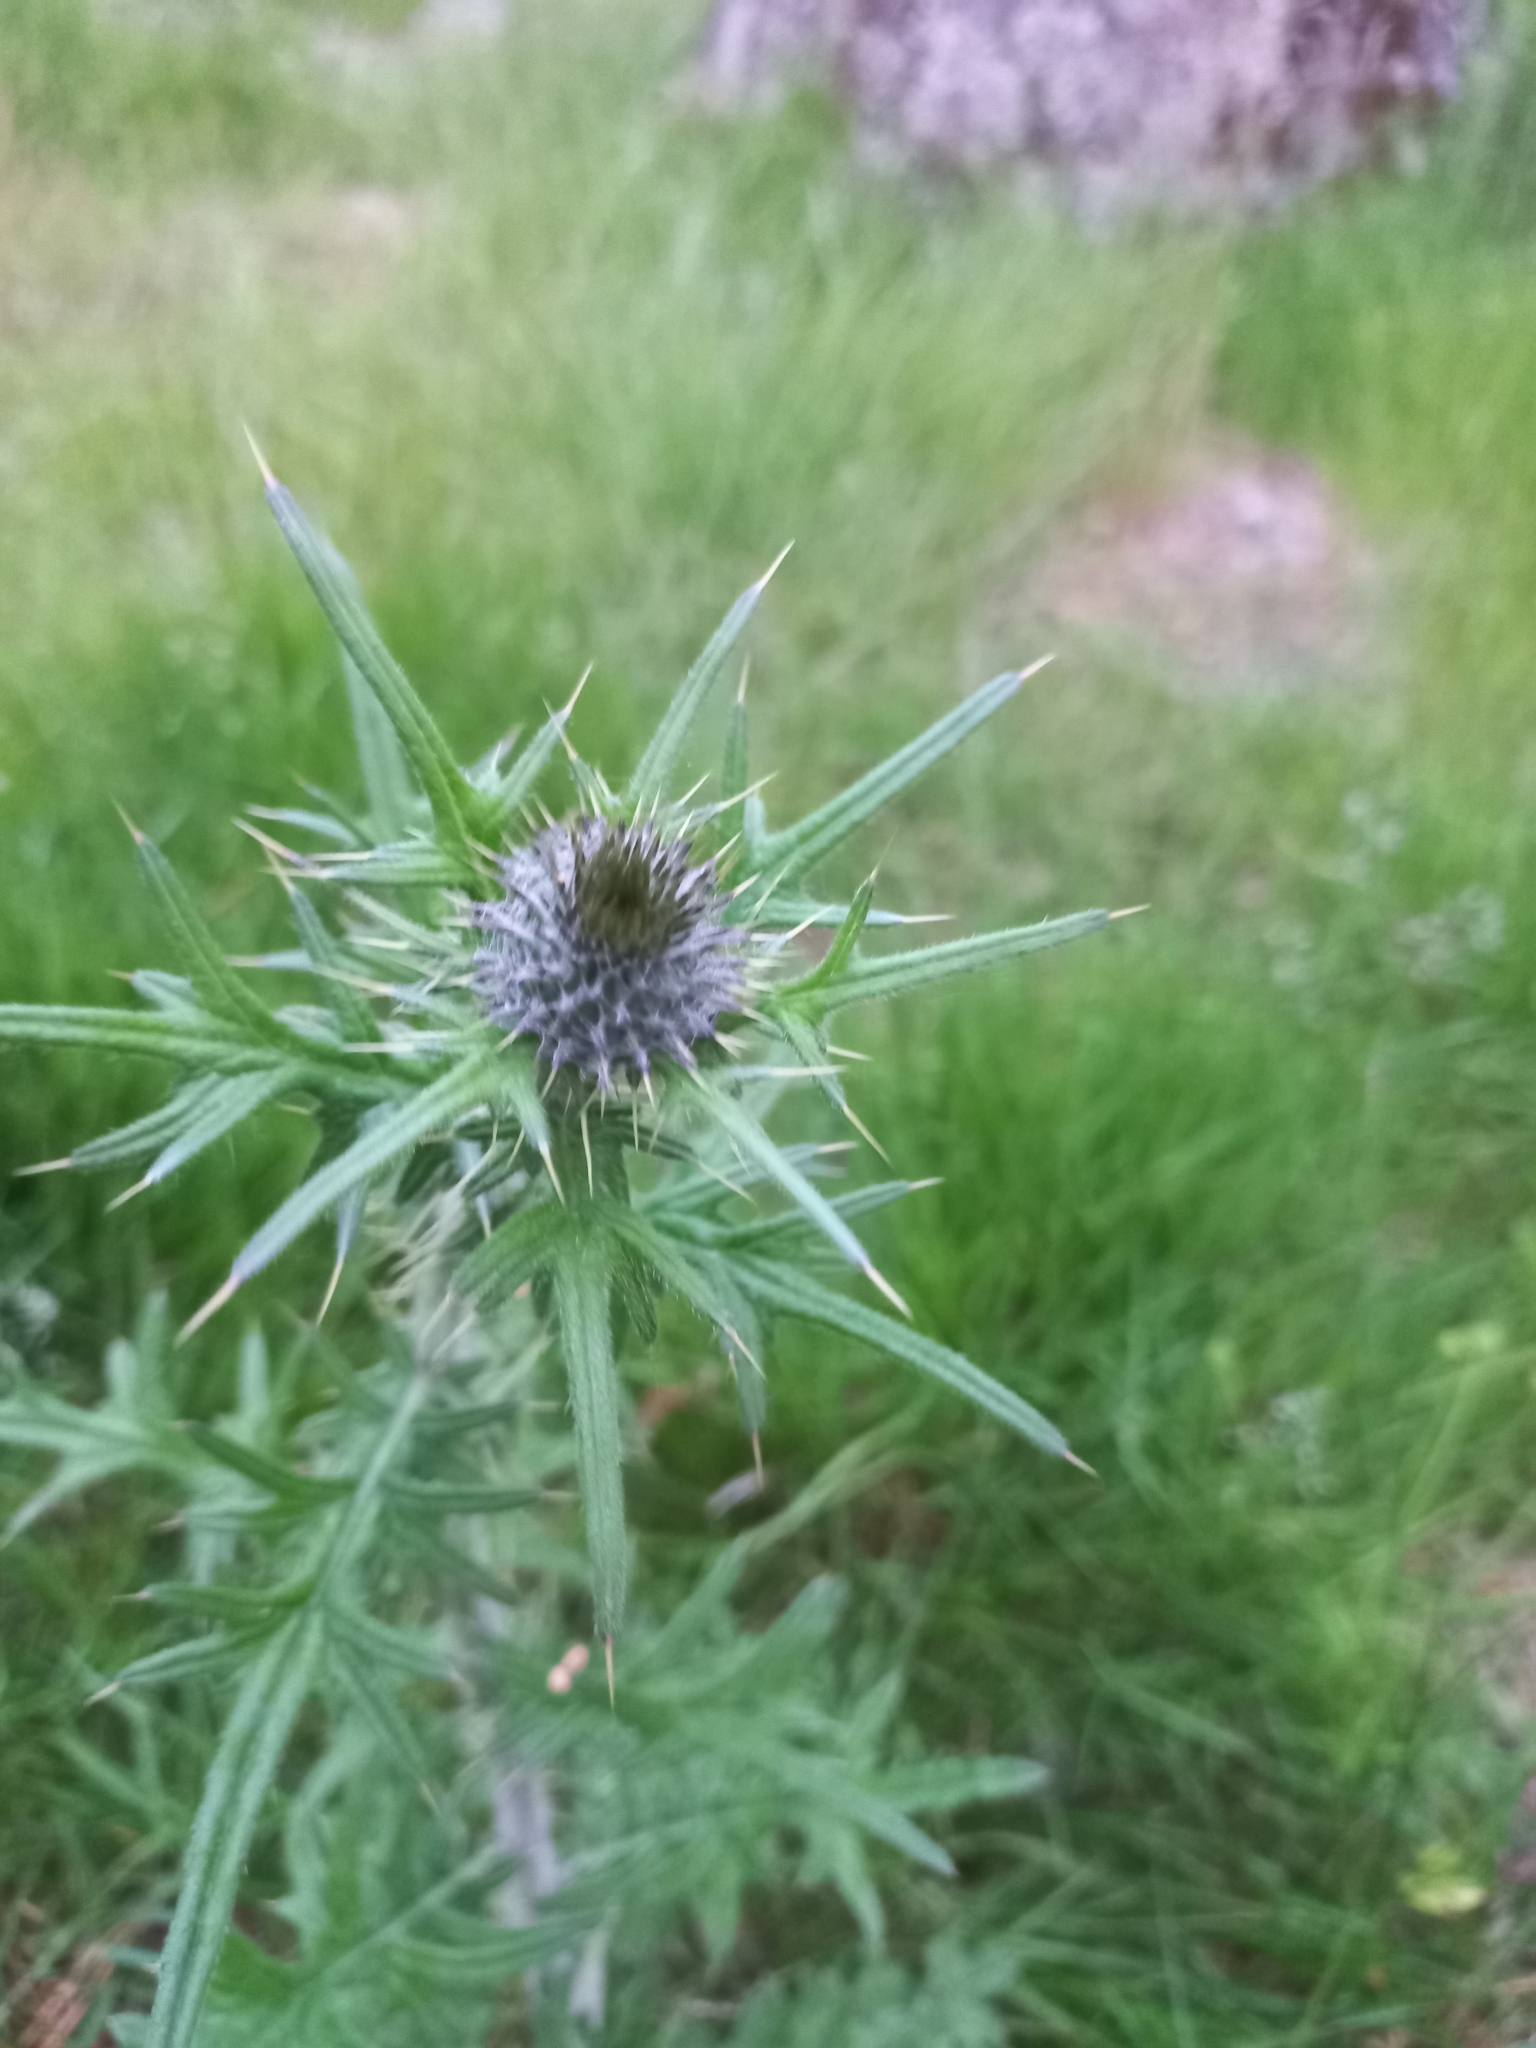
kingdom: Plantae
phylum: Tracheophyta
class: Magnoliopsida
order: Asterales
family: Asteraceae
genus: Cirsium
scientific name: Cirsium vulgare
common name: Bull thistle
